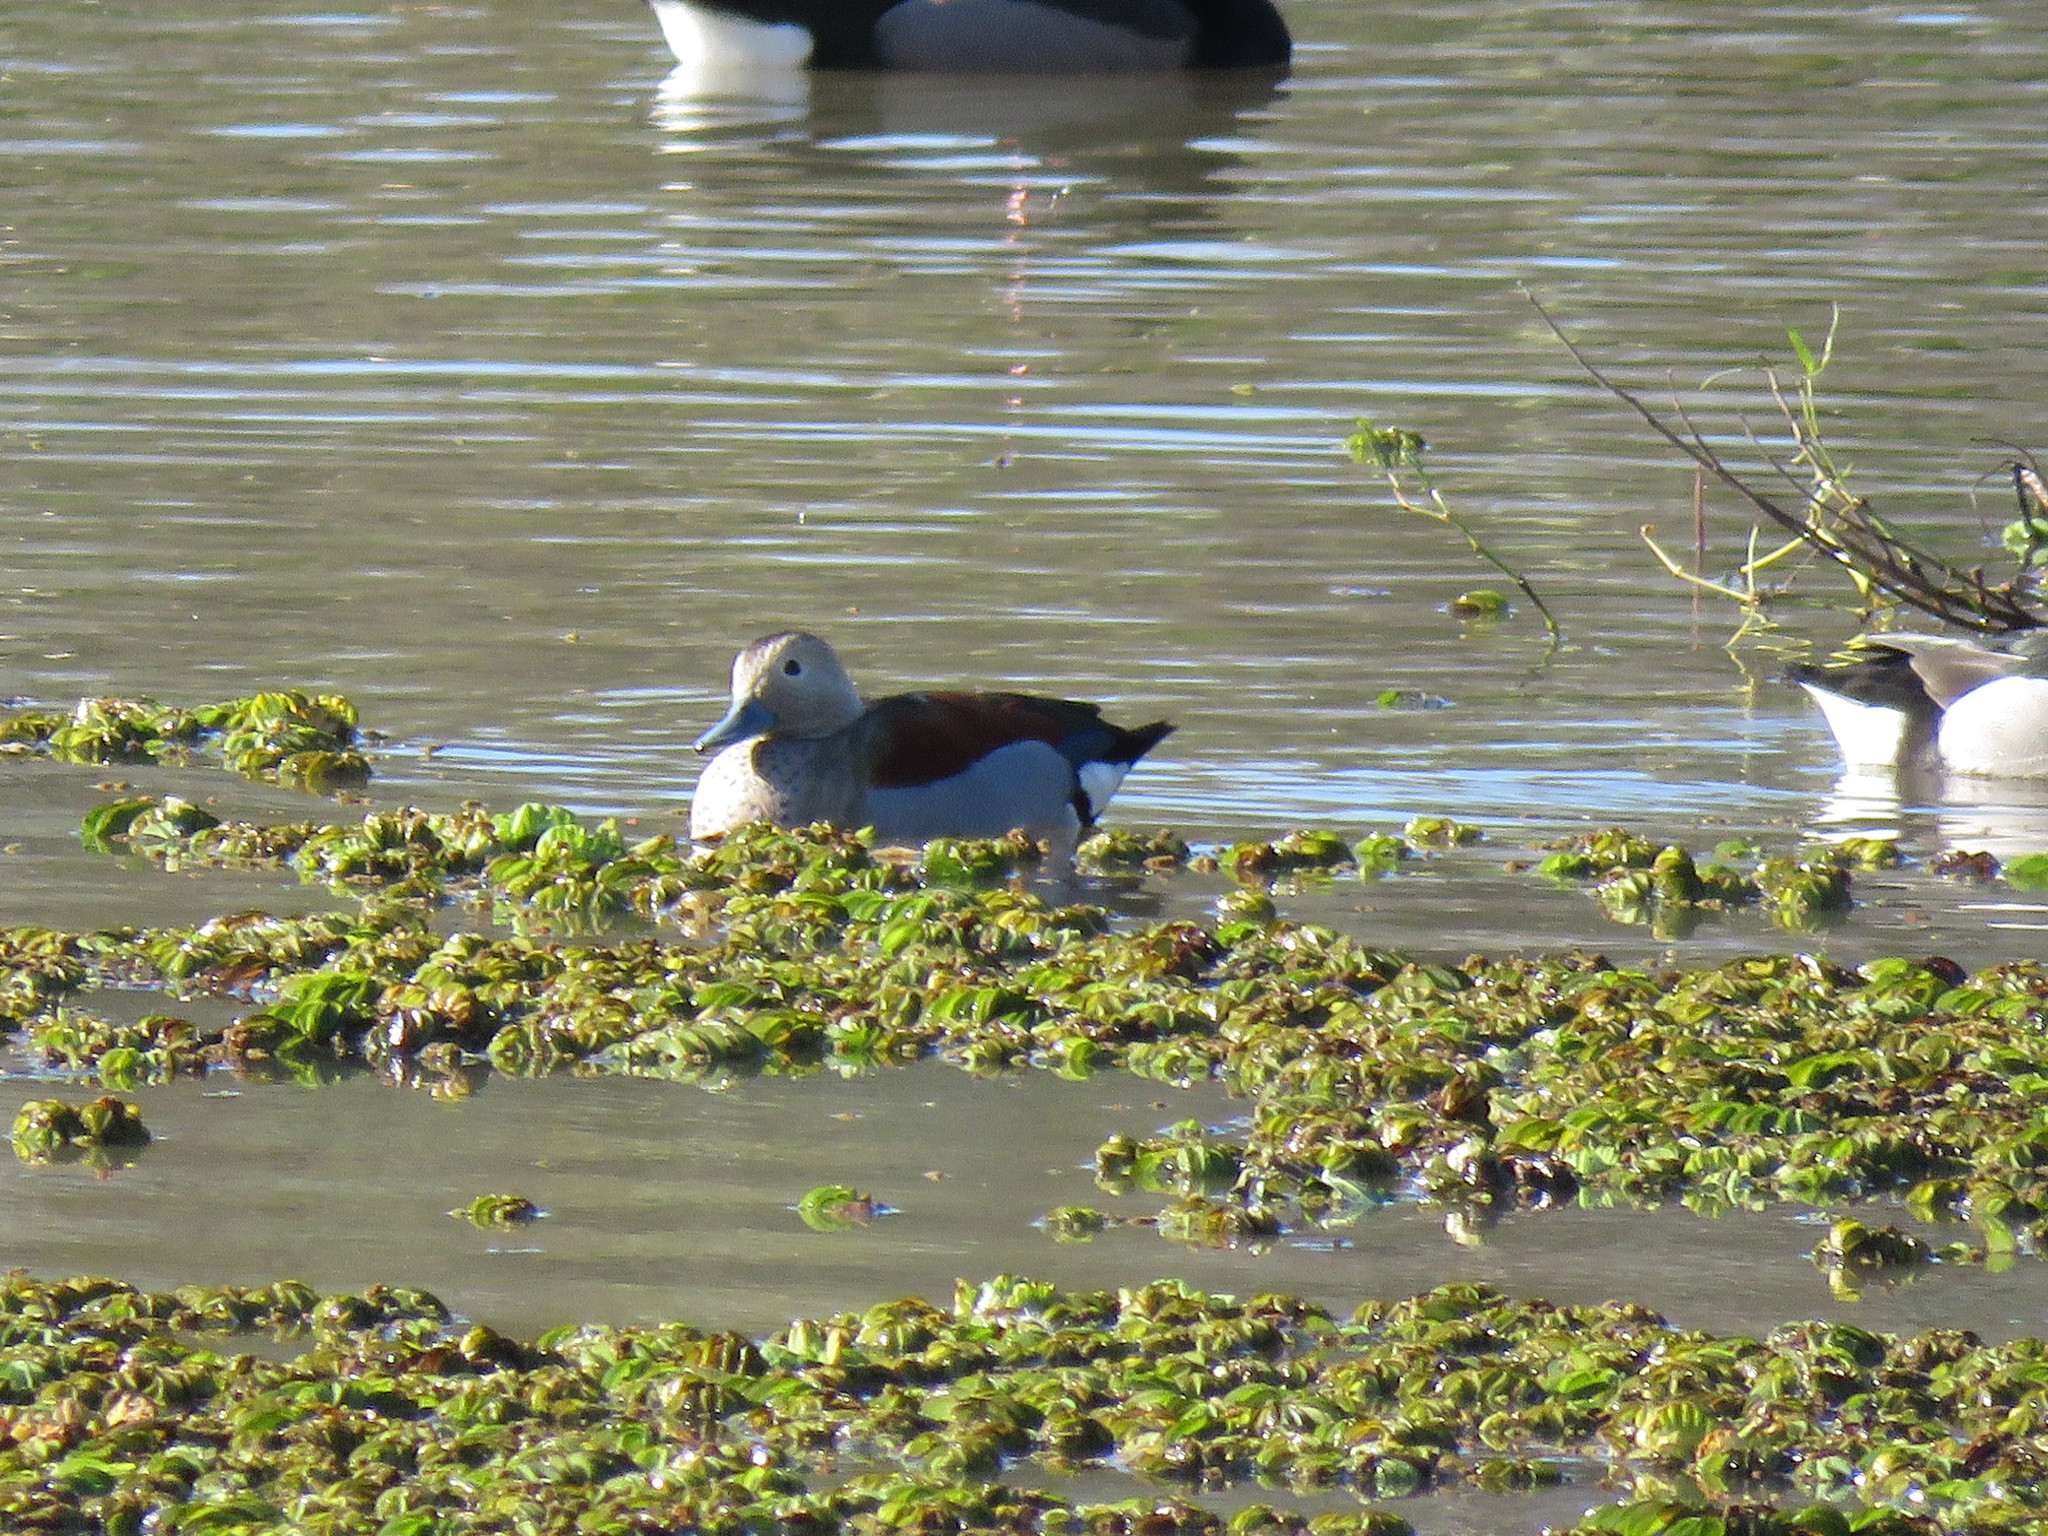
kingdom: Animalia
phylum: Chordata
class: Aves
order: Anseriformes
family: Anatidae
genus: Callonetta
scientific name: Callonetta leucophrys
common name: Ringed teal
